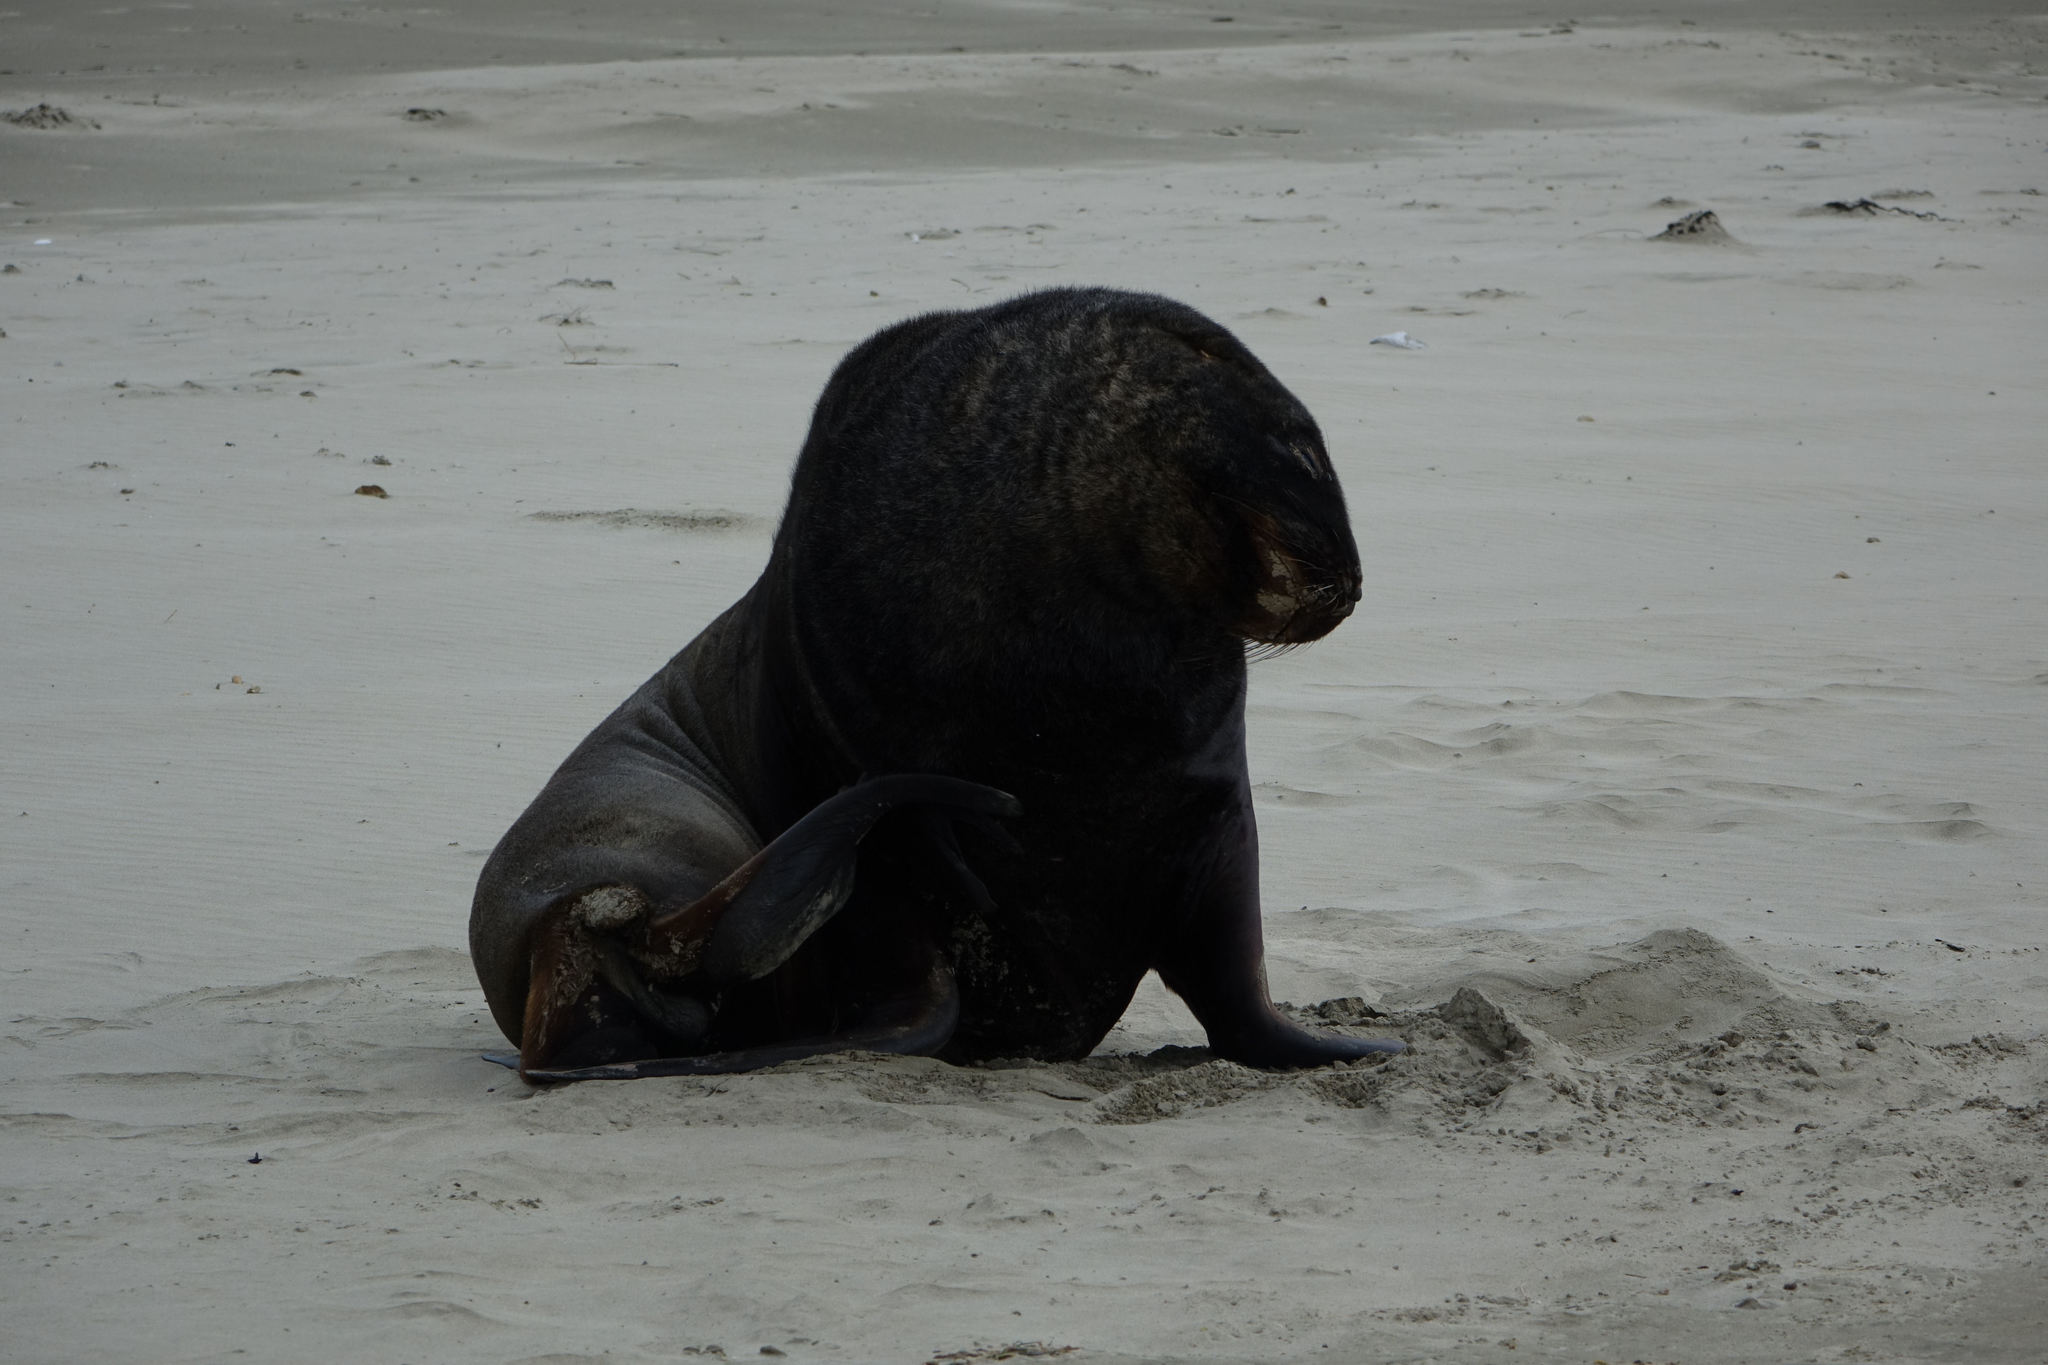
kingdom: Animalia
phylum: Chordata
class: Mammalia
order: Carnivora
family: Otariidae
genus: Phocarctos
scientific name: Phocarctos hookeri
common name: New zealand sea lion
